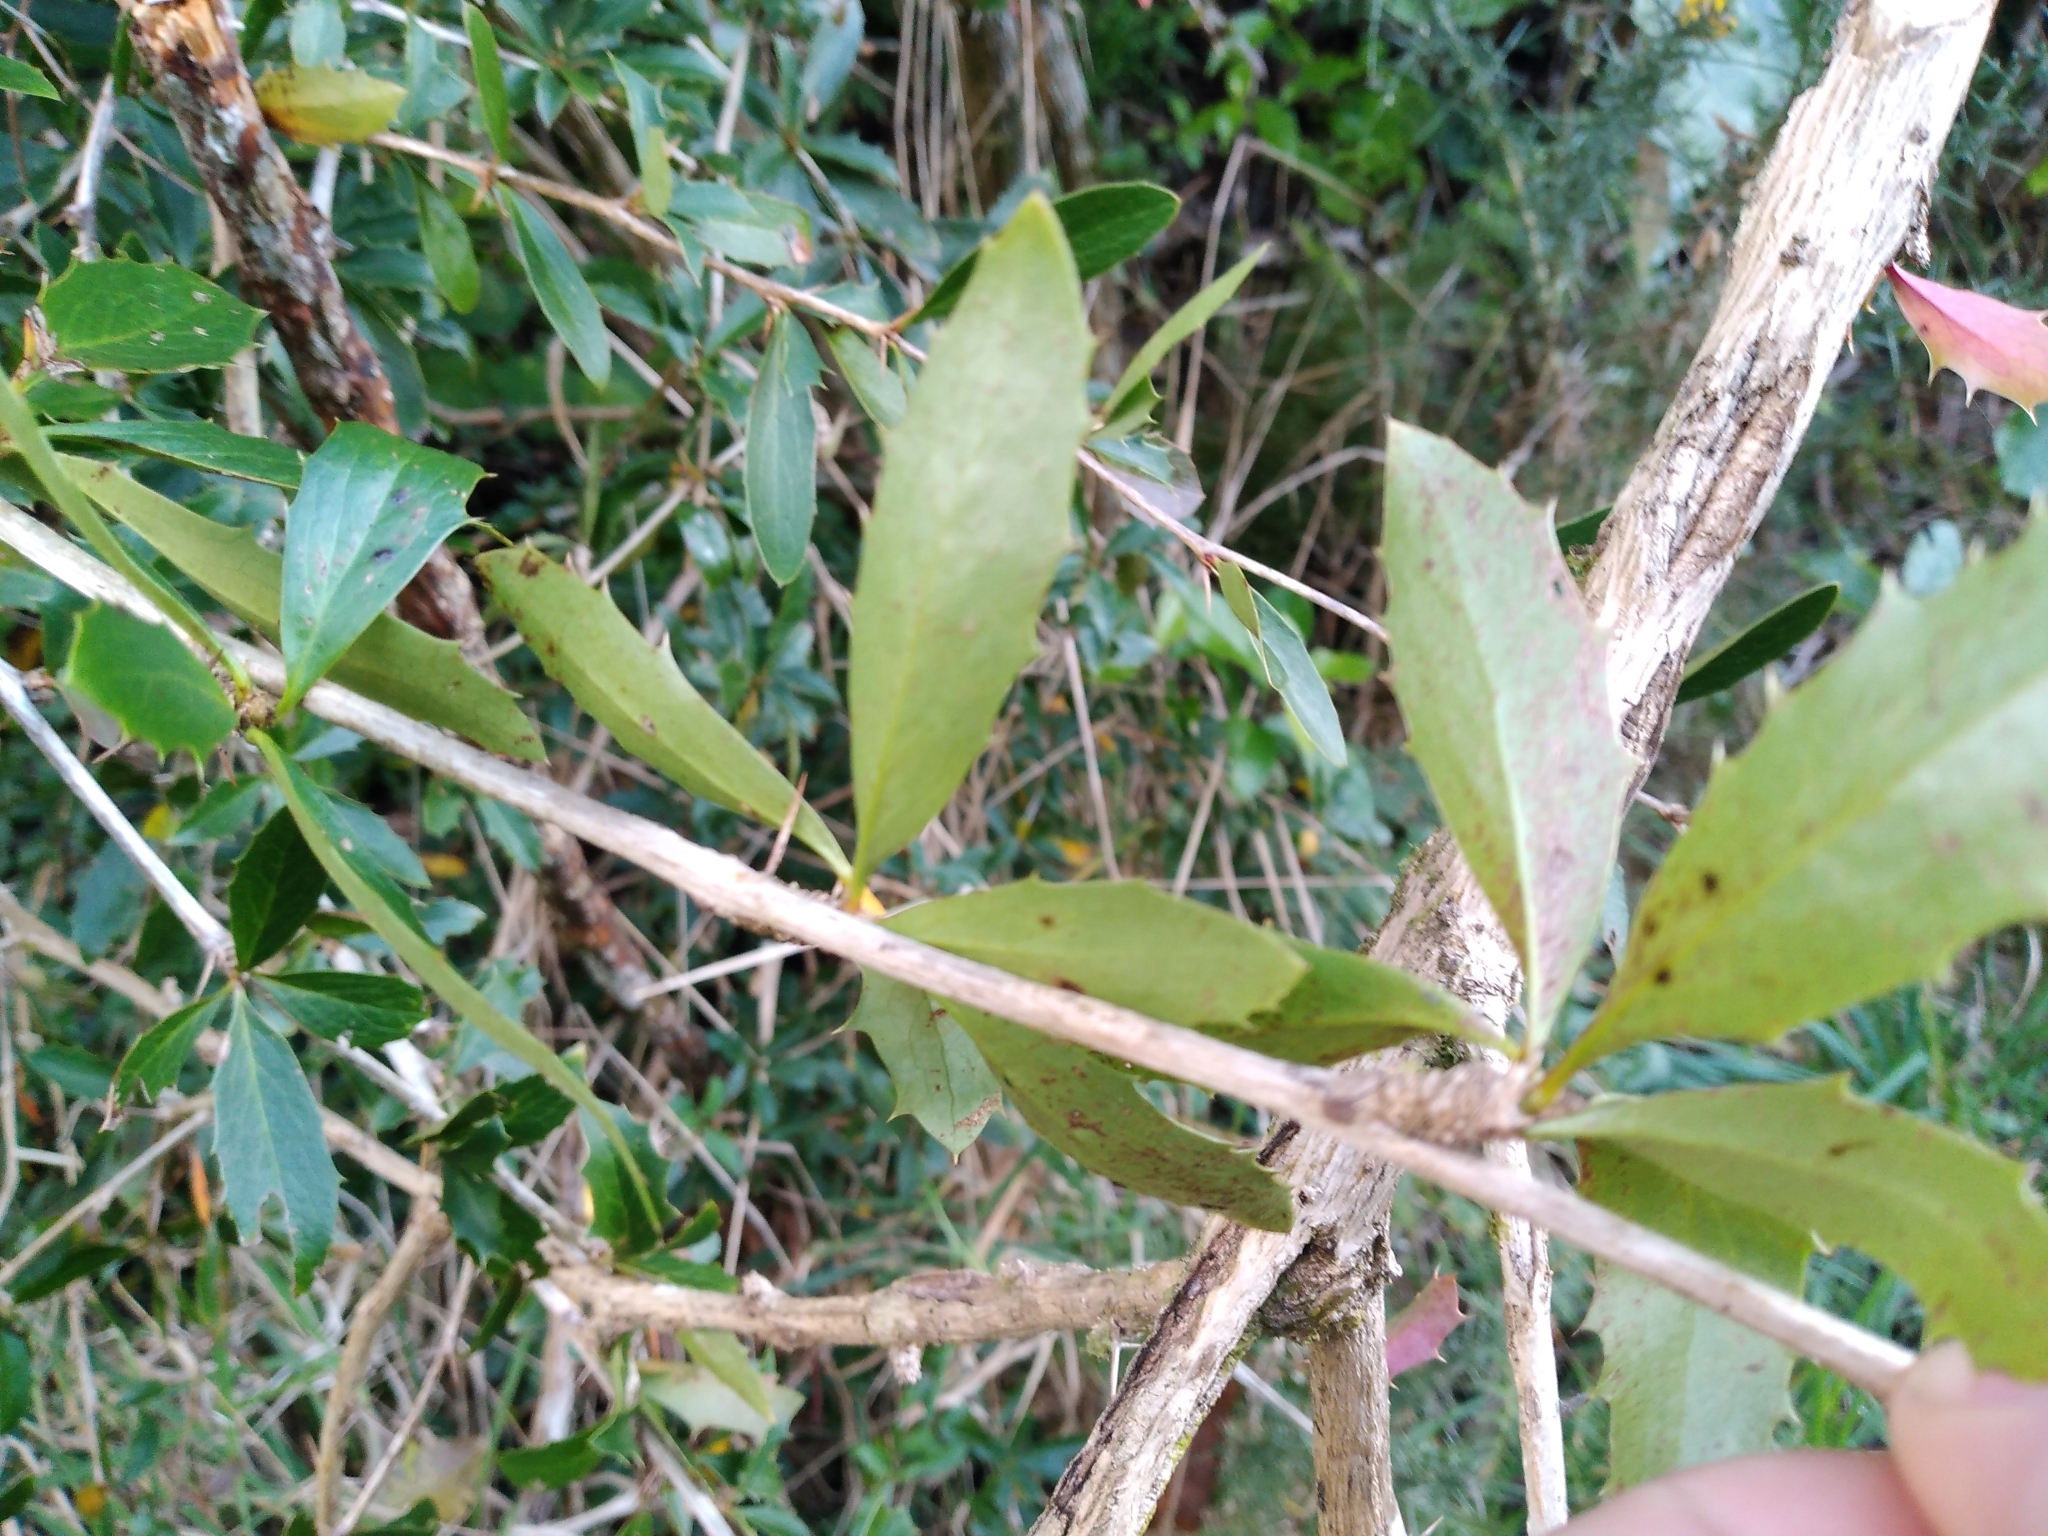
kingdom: Plantae
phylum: Tracheophyta
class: Magnoliopsida
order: Ranunculales
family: Berberidaceae
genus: Berberis
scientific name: Berberis glaucocarpa
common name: Great barberry
